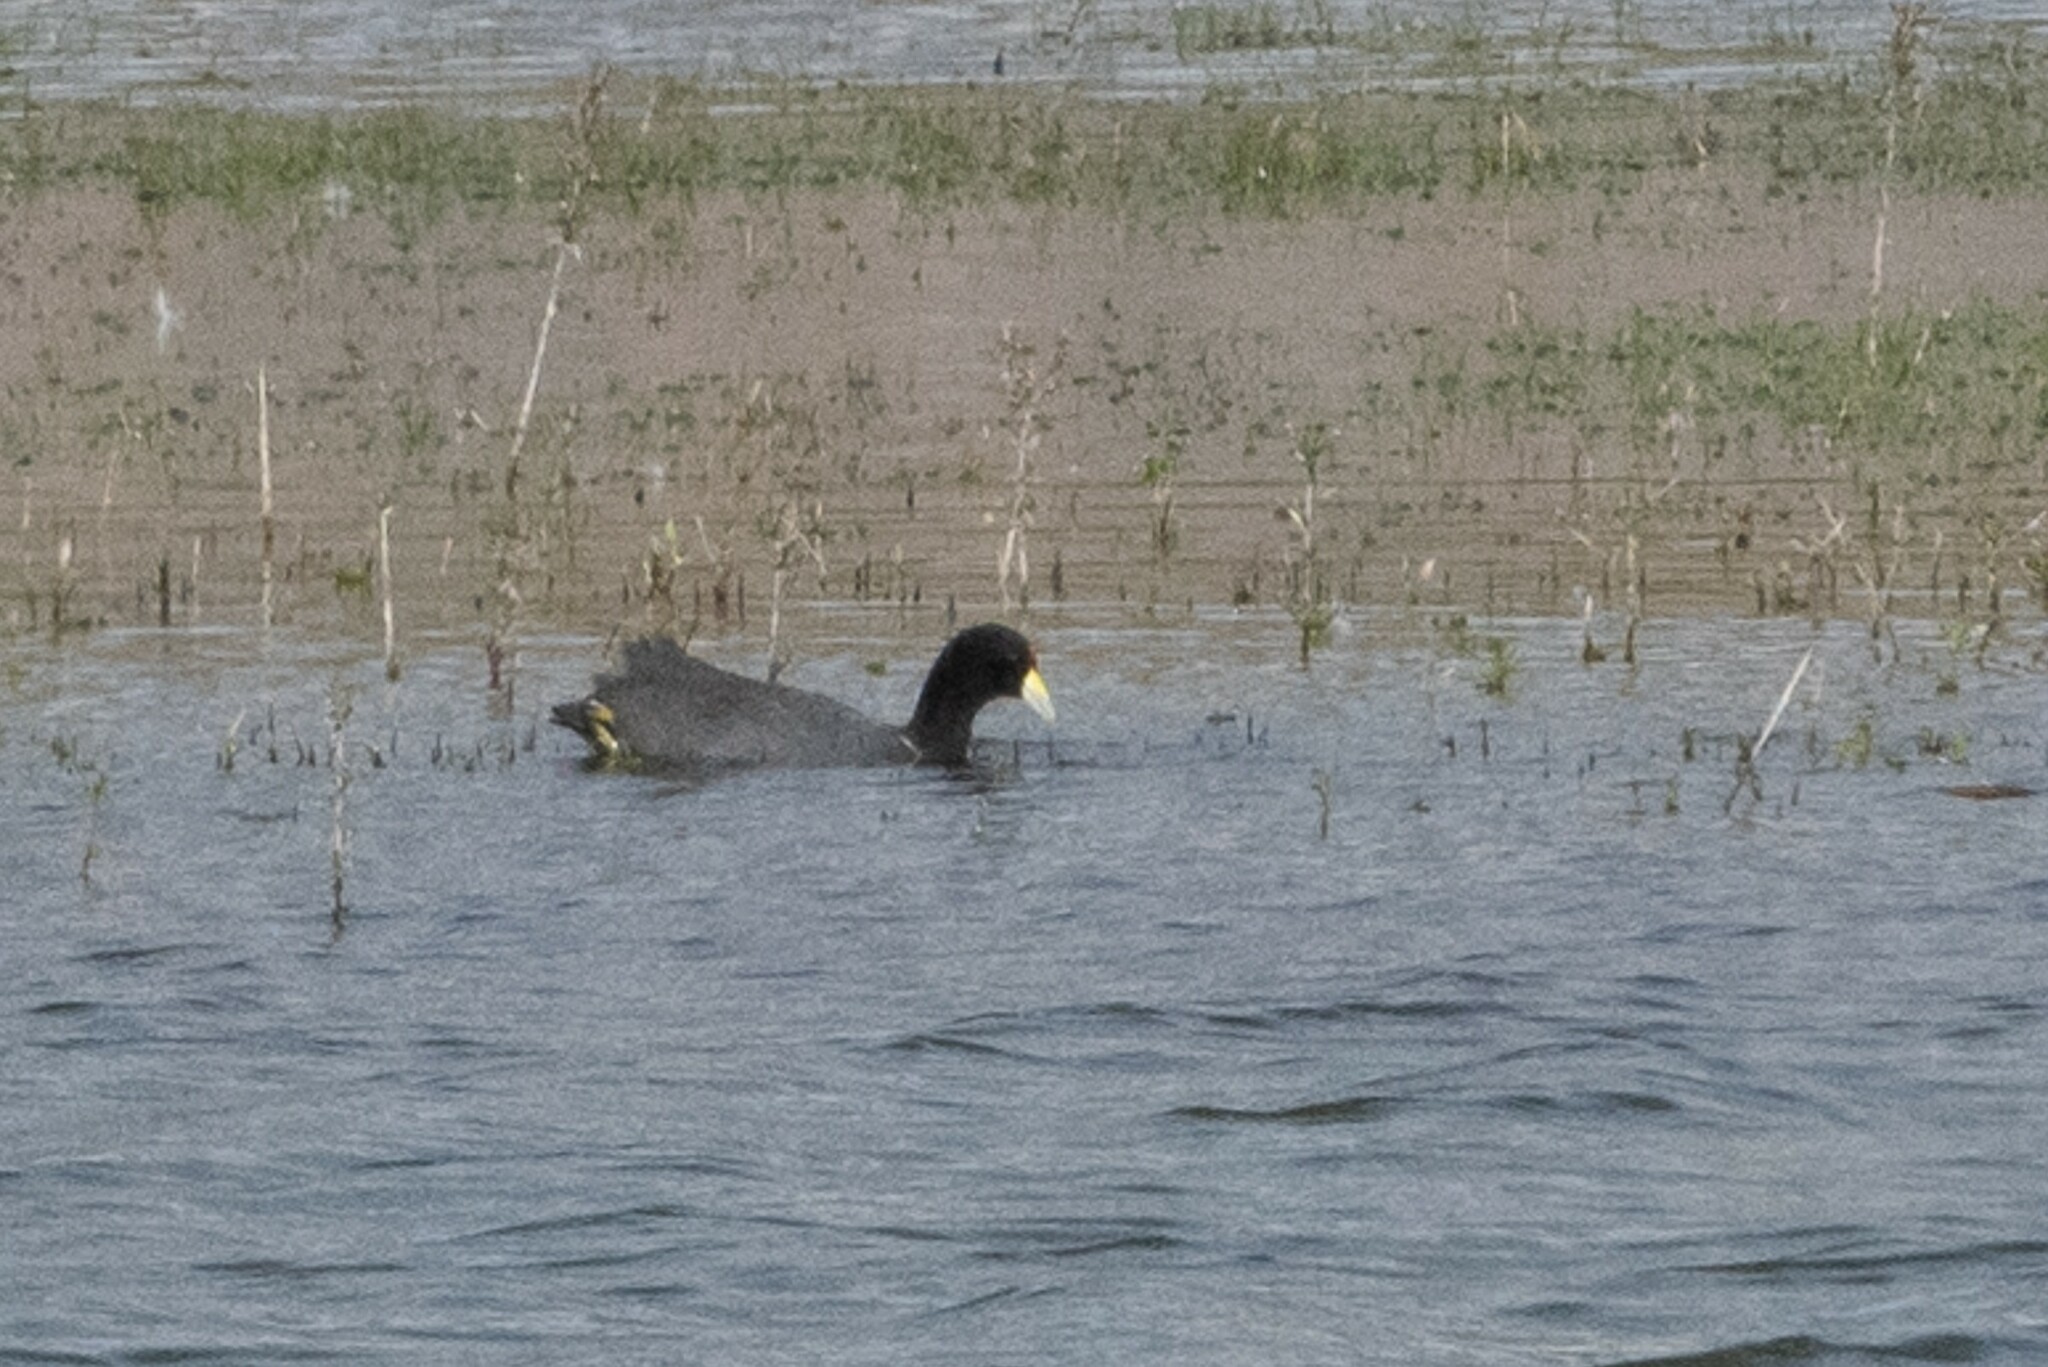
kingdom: Animalia
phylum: Chordata
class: Aves
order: Gruiformes
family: Rallidae
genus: Fulica
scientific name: Fulica ardesiaca
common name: Andean coot
